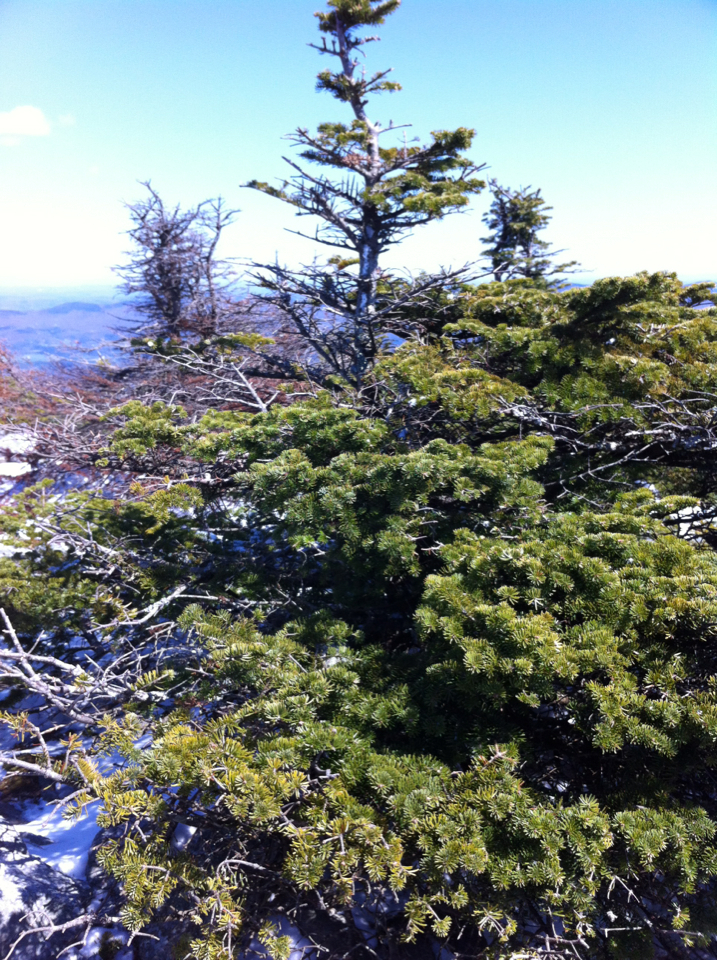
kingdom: Plantae
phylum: Tracheophyta
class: Pinopsida
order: Pinales
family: Pinaceae
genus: Abies
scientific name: Abies balsamea
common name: Balsam fir
